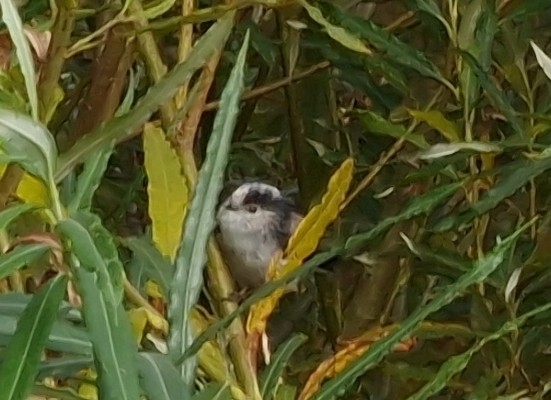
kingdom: Animalia
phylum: Chordata
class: Aves
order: Passeriformes
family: Aegithalidae
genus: Aegithalos
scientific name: Aegithalos caudatus
